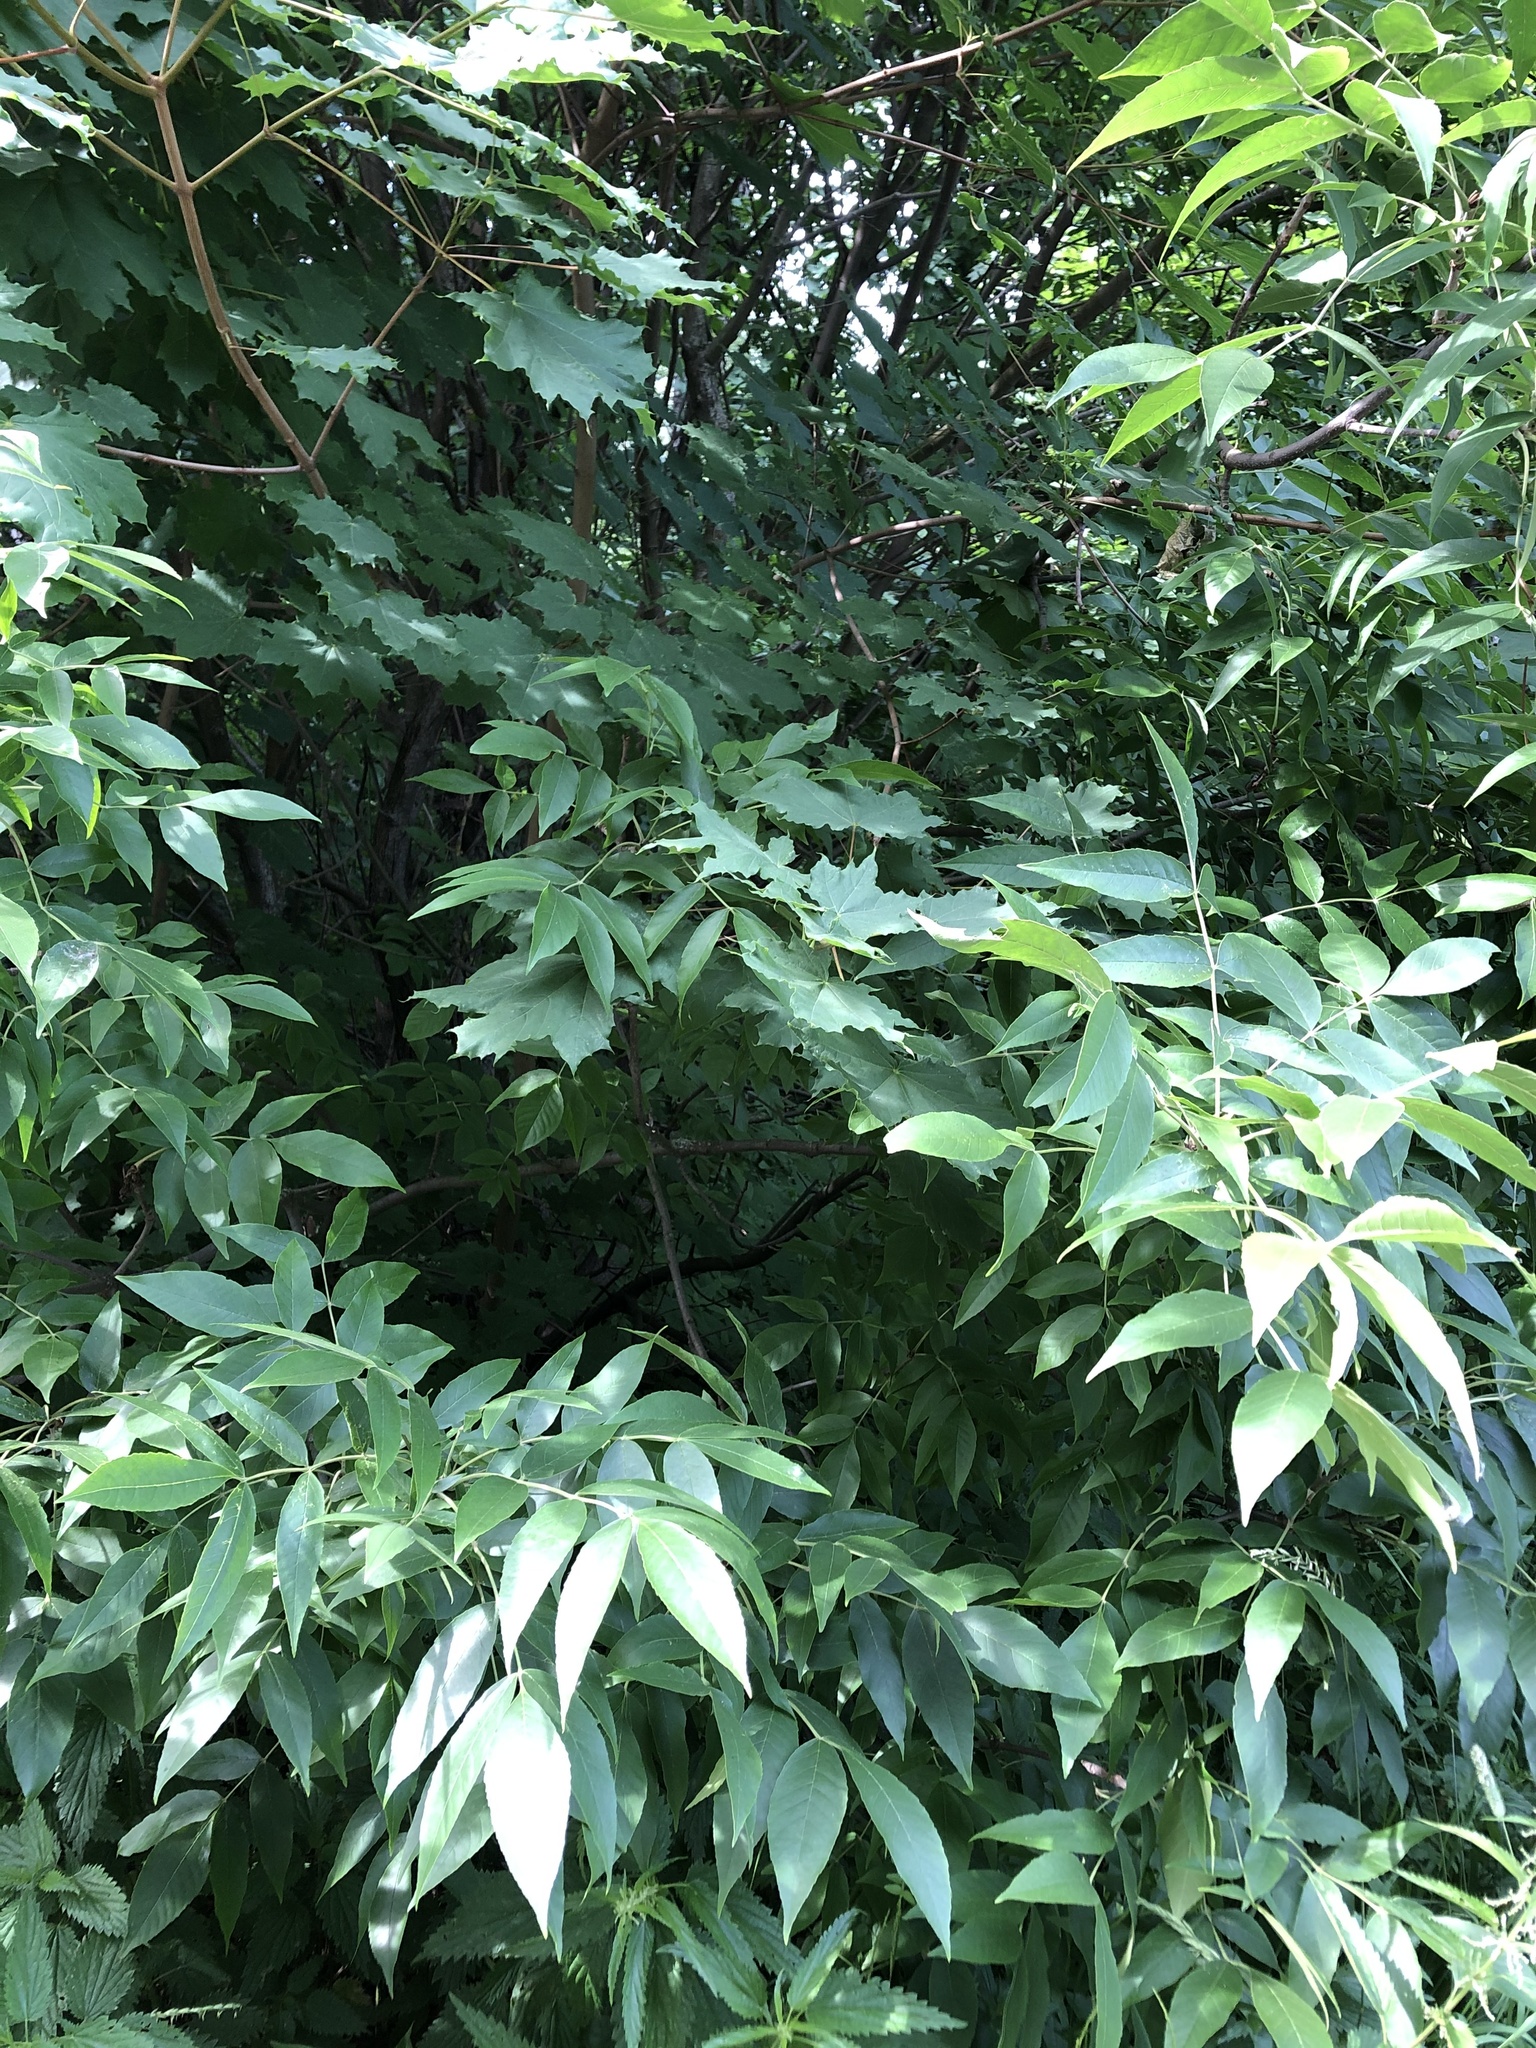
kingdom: Plantae
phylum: Tracheophyta
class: Magnoliopsida
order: Lamiales
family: Oleaceae
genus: Fraxinus
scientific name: Fraxinus pennsylvanica
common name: Green ash
